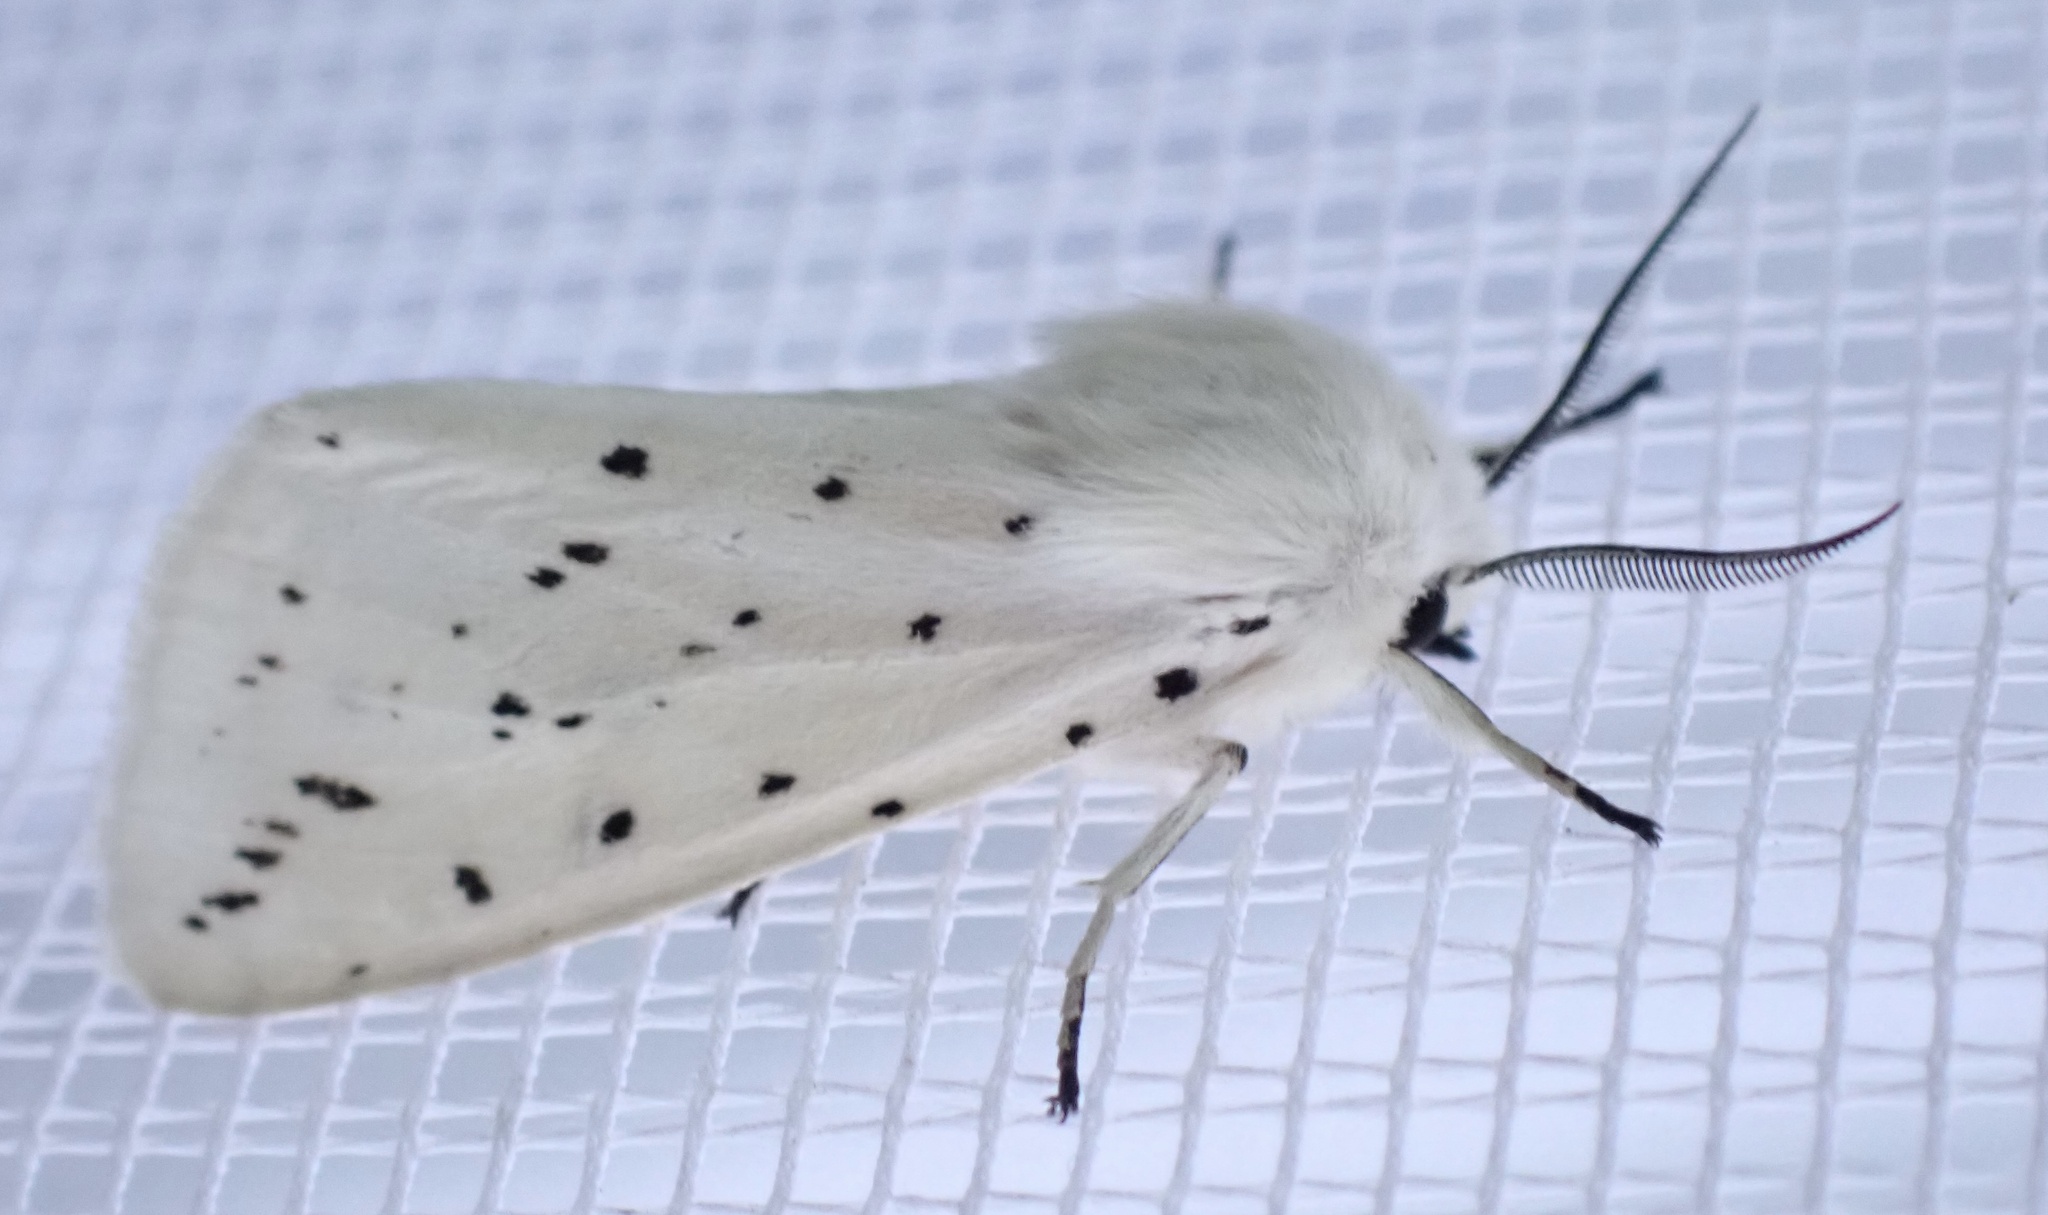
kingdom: Animalia
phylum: Arthropoda
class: Insecta
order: Lepidoptera
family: Erebidae
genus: Spilosoma
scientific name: Spilosoma lubricipeda
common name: White ermine
